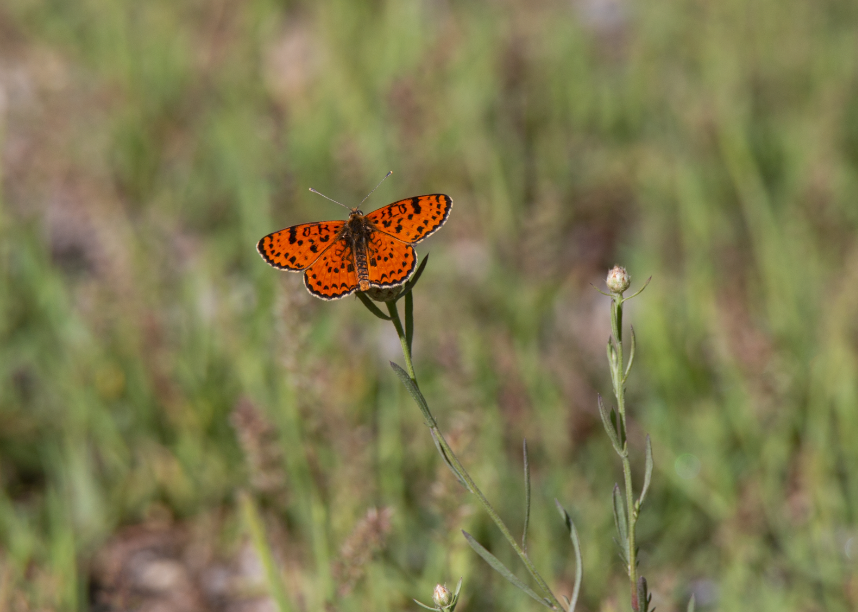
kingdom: Animalia
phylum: Arthropoda
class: Insecta
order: Lepidoptera
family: Nymphalidae
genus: Melitaea
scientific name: Melitaea didyma
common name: Spotted fritillary
